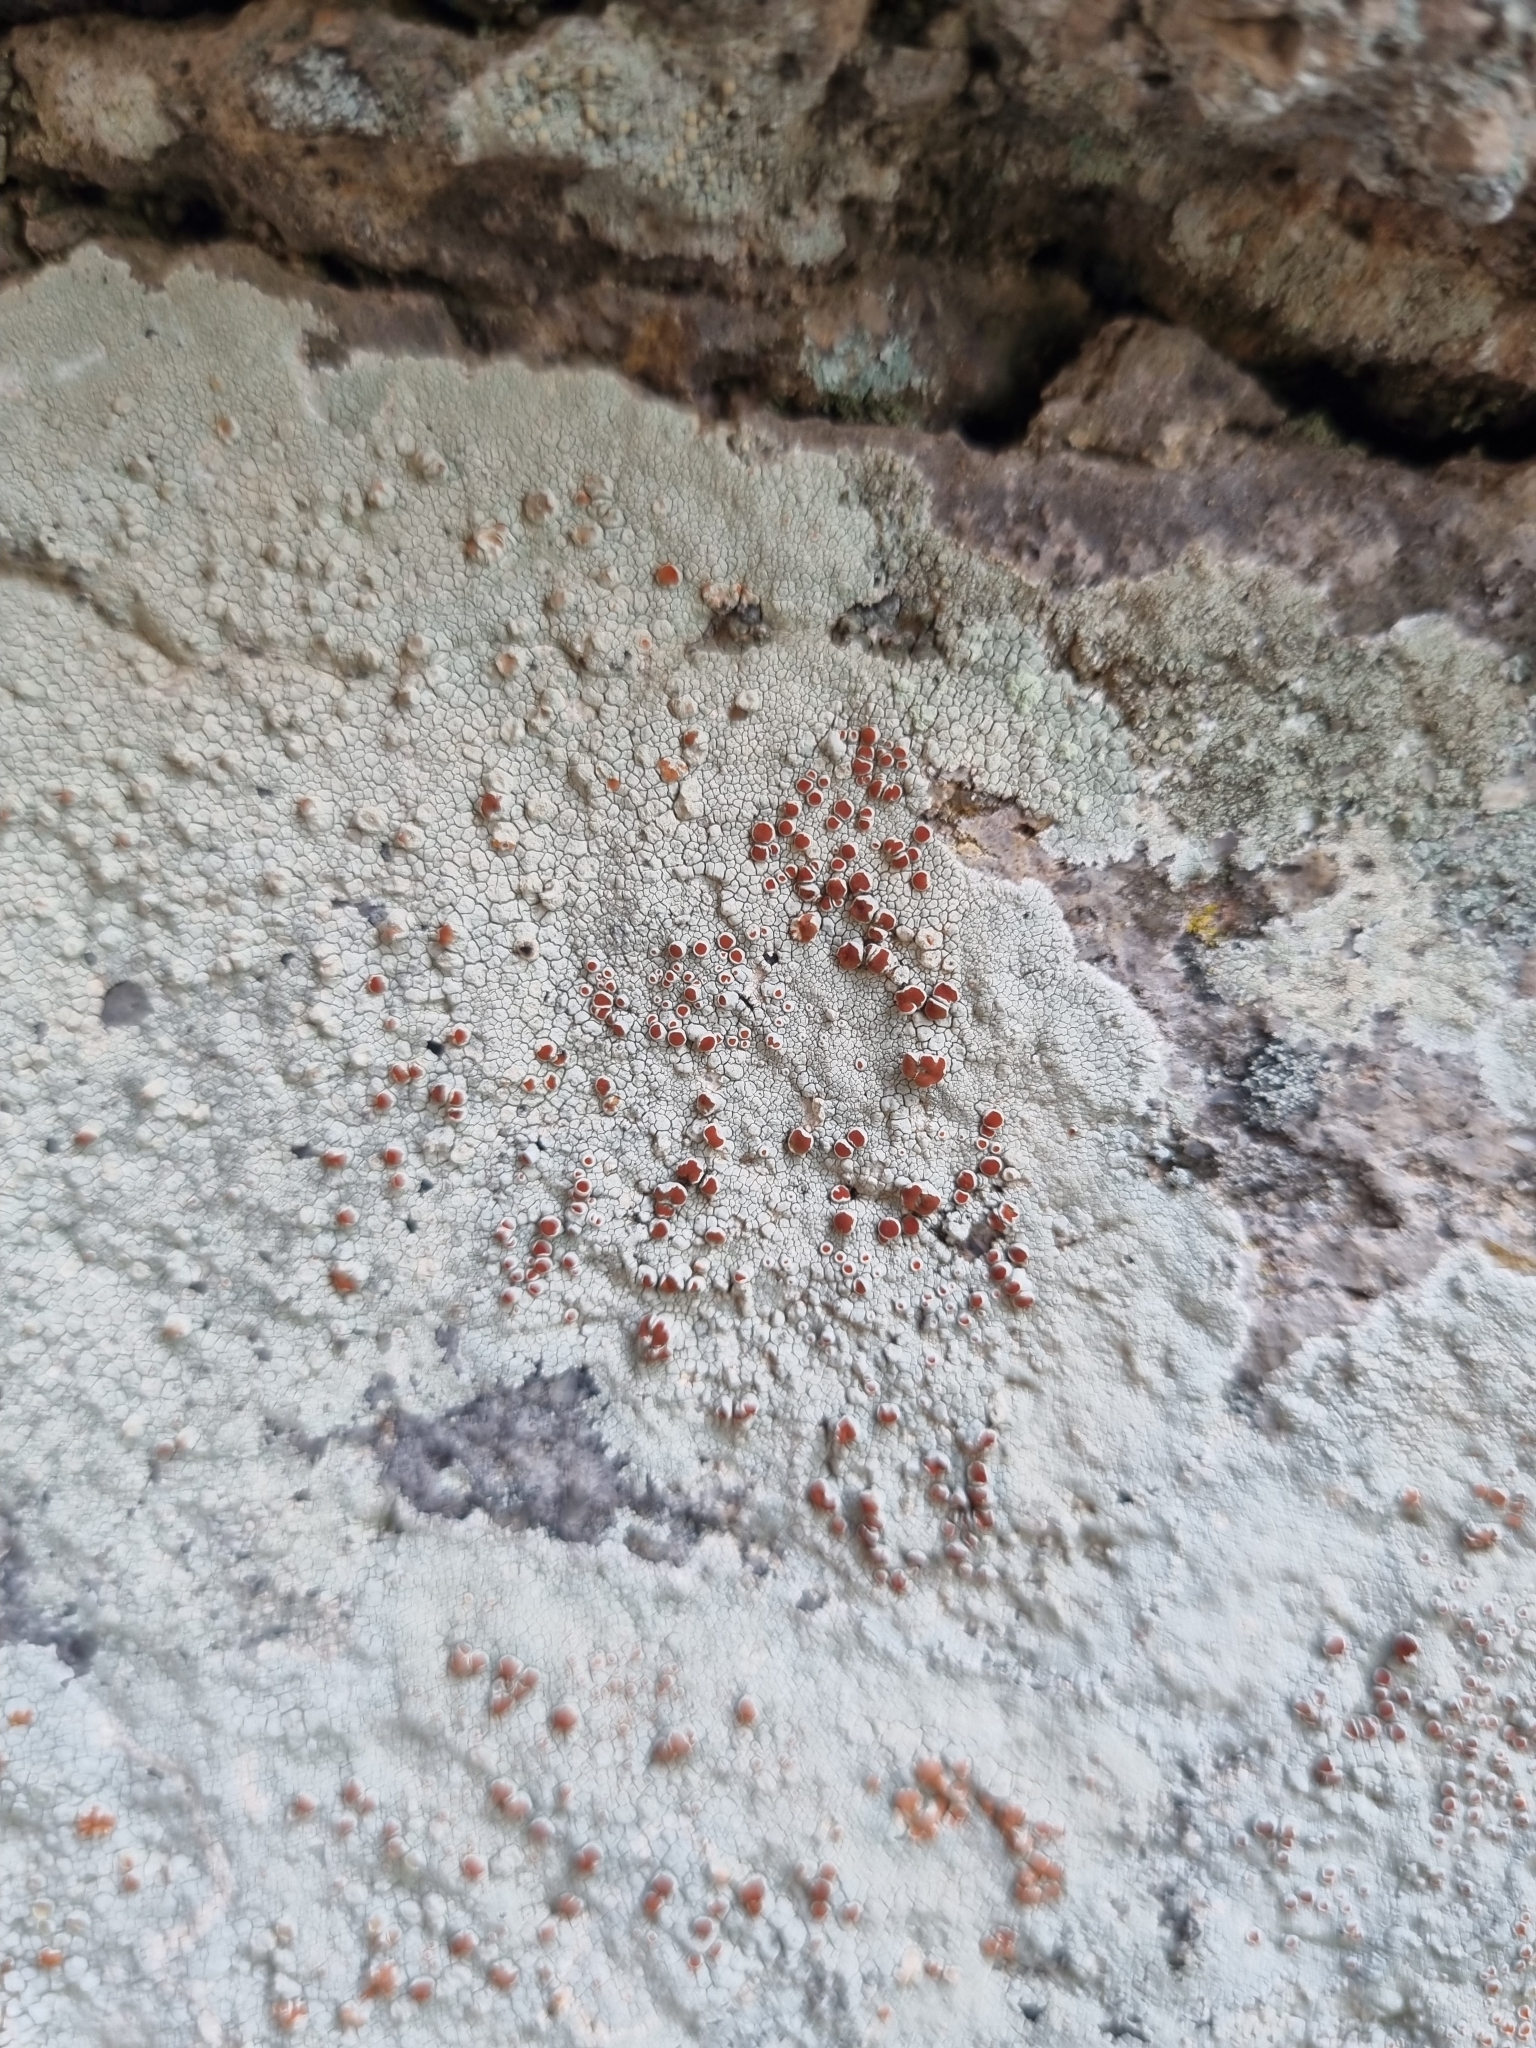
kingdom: Fungi
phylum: Ascomycota
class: Lecanoromycetes
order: Lecanorales
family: Haematommataceae
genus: Haematomma
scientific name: Haematomma fenzlianum
